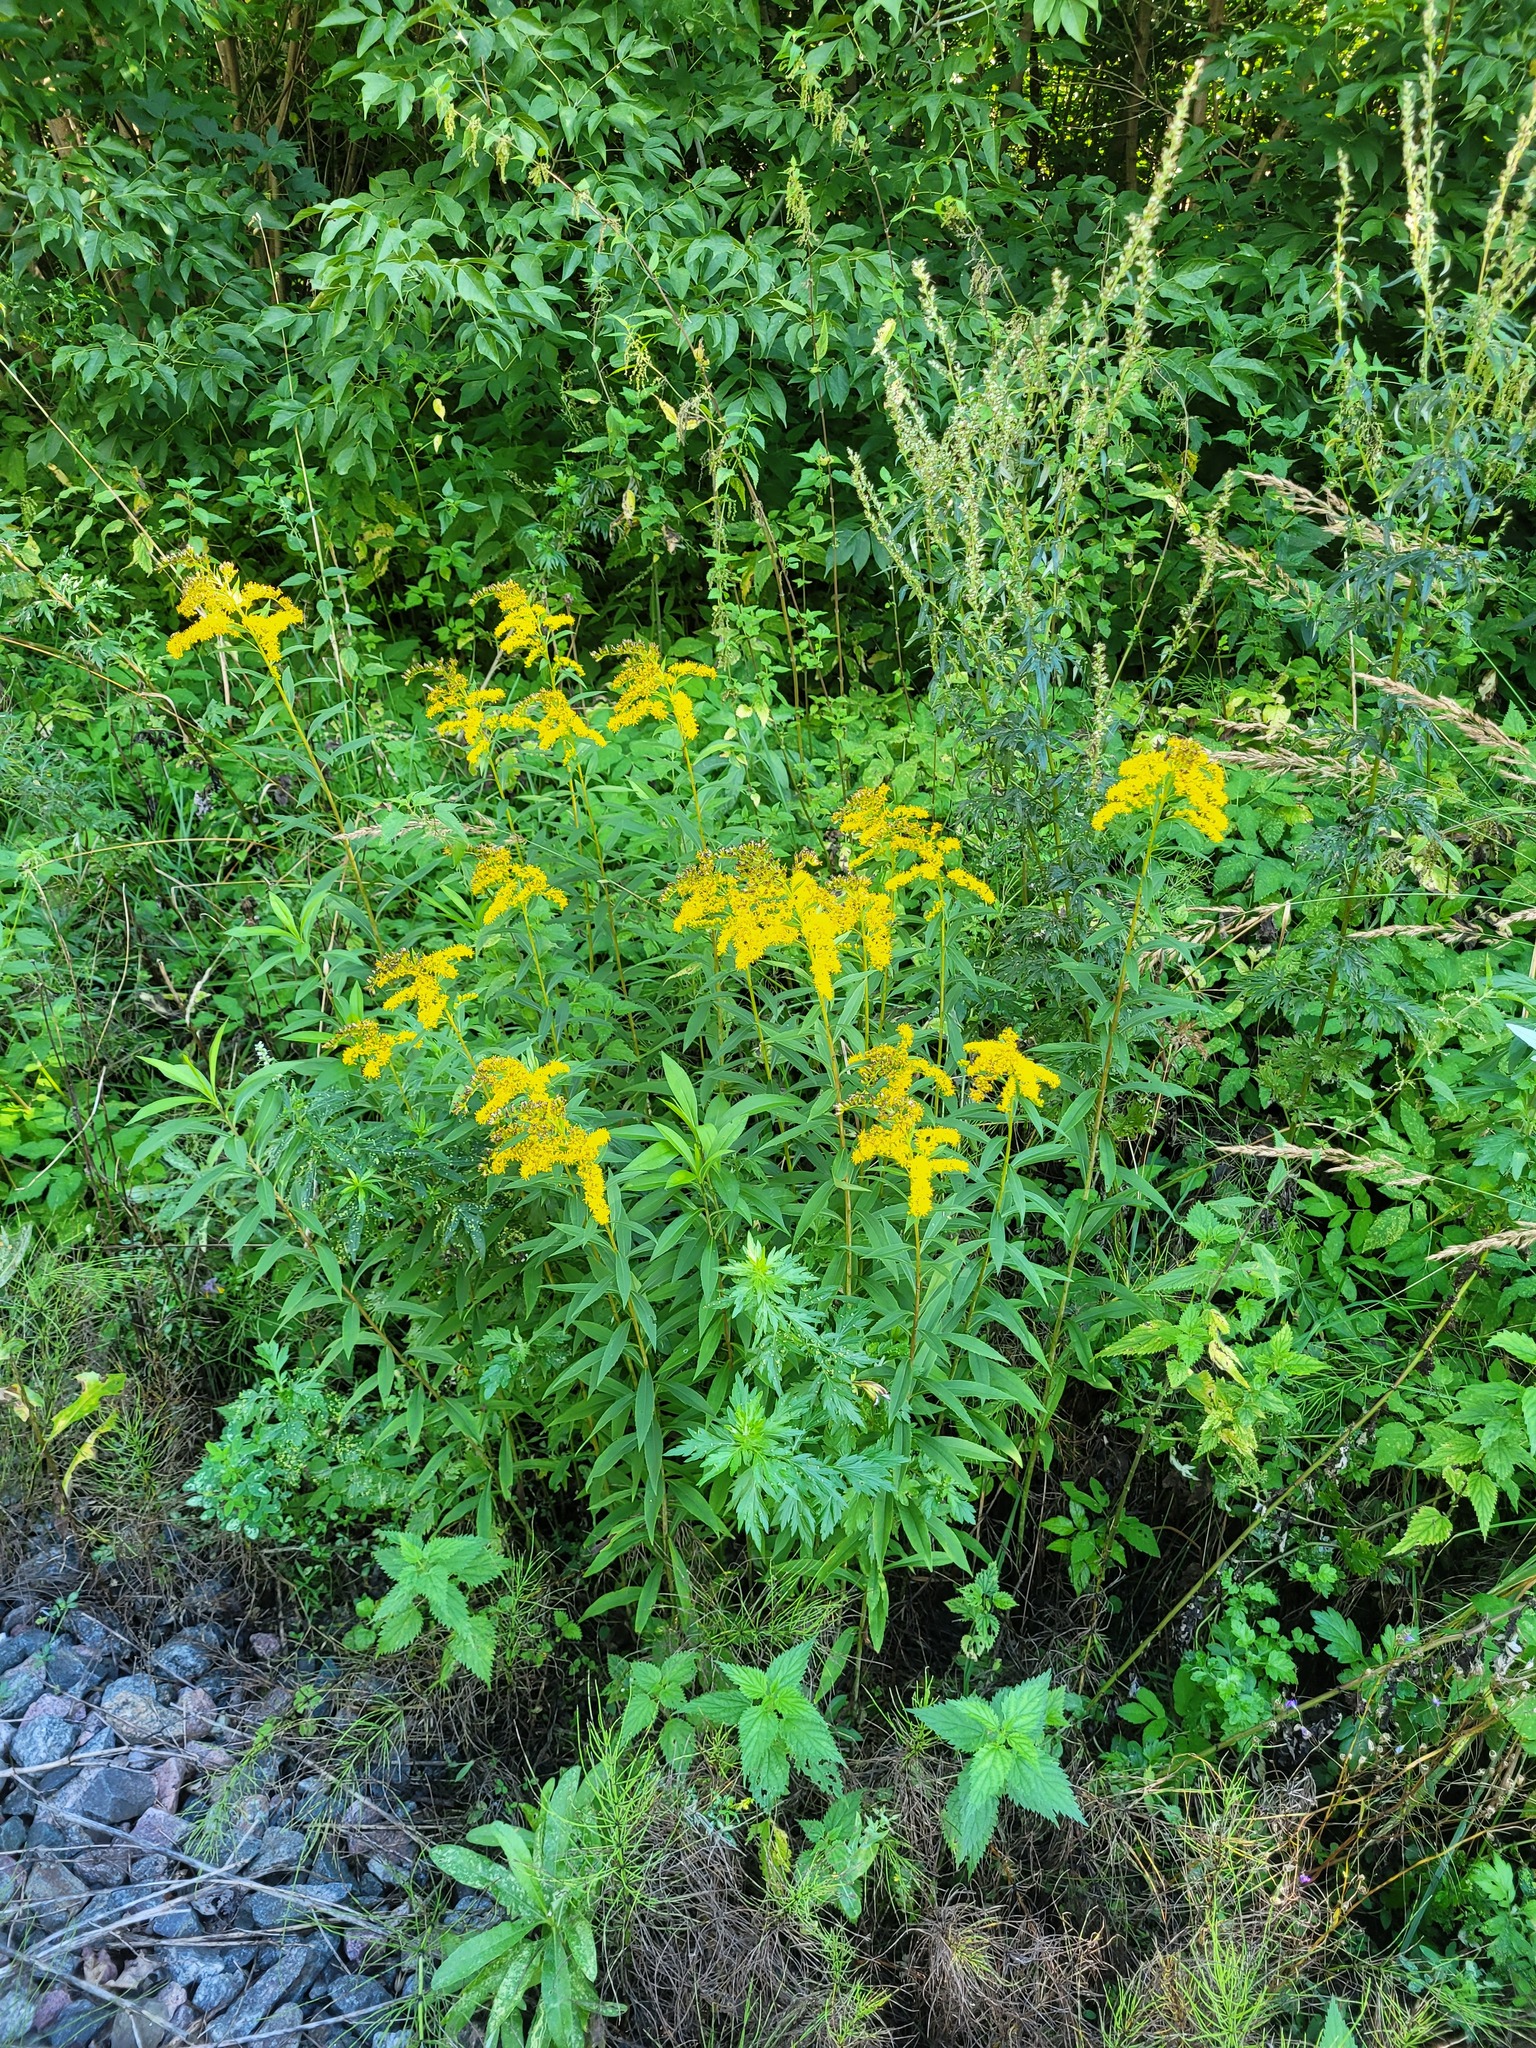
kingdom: Plantae
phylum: Tracheophyta
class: Magnoliopsida
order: Asterales
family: Asteraceae
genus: Solidago
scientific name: Solidago canadensis
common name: Canada goldenrod
